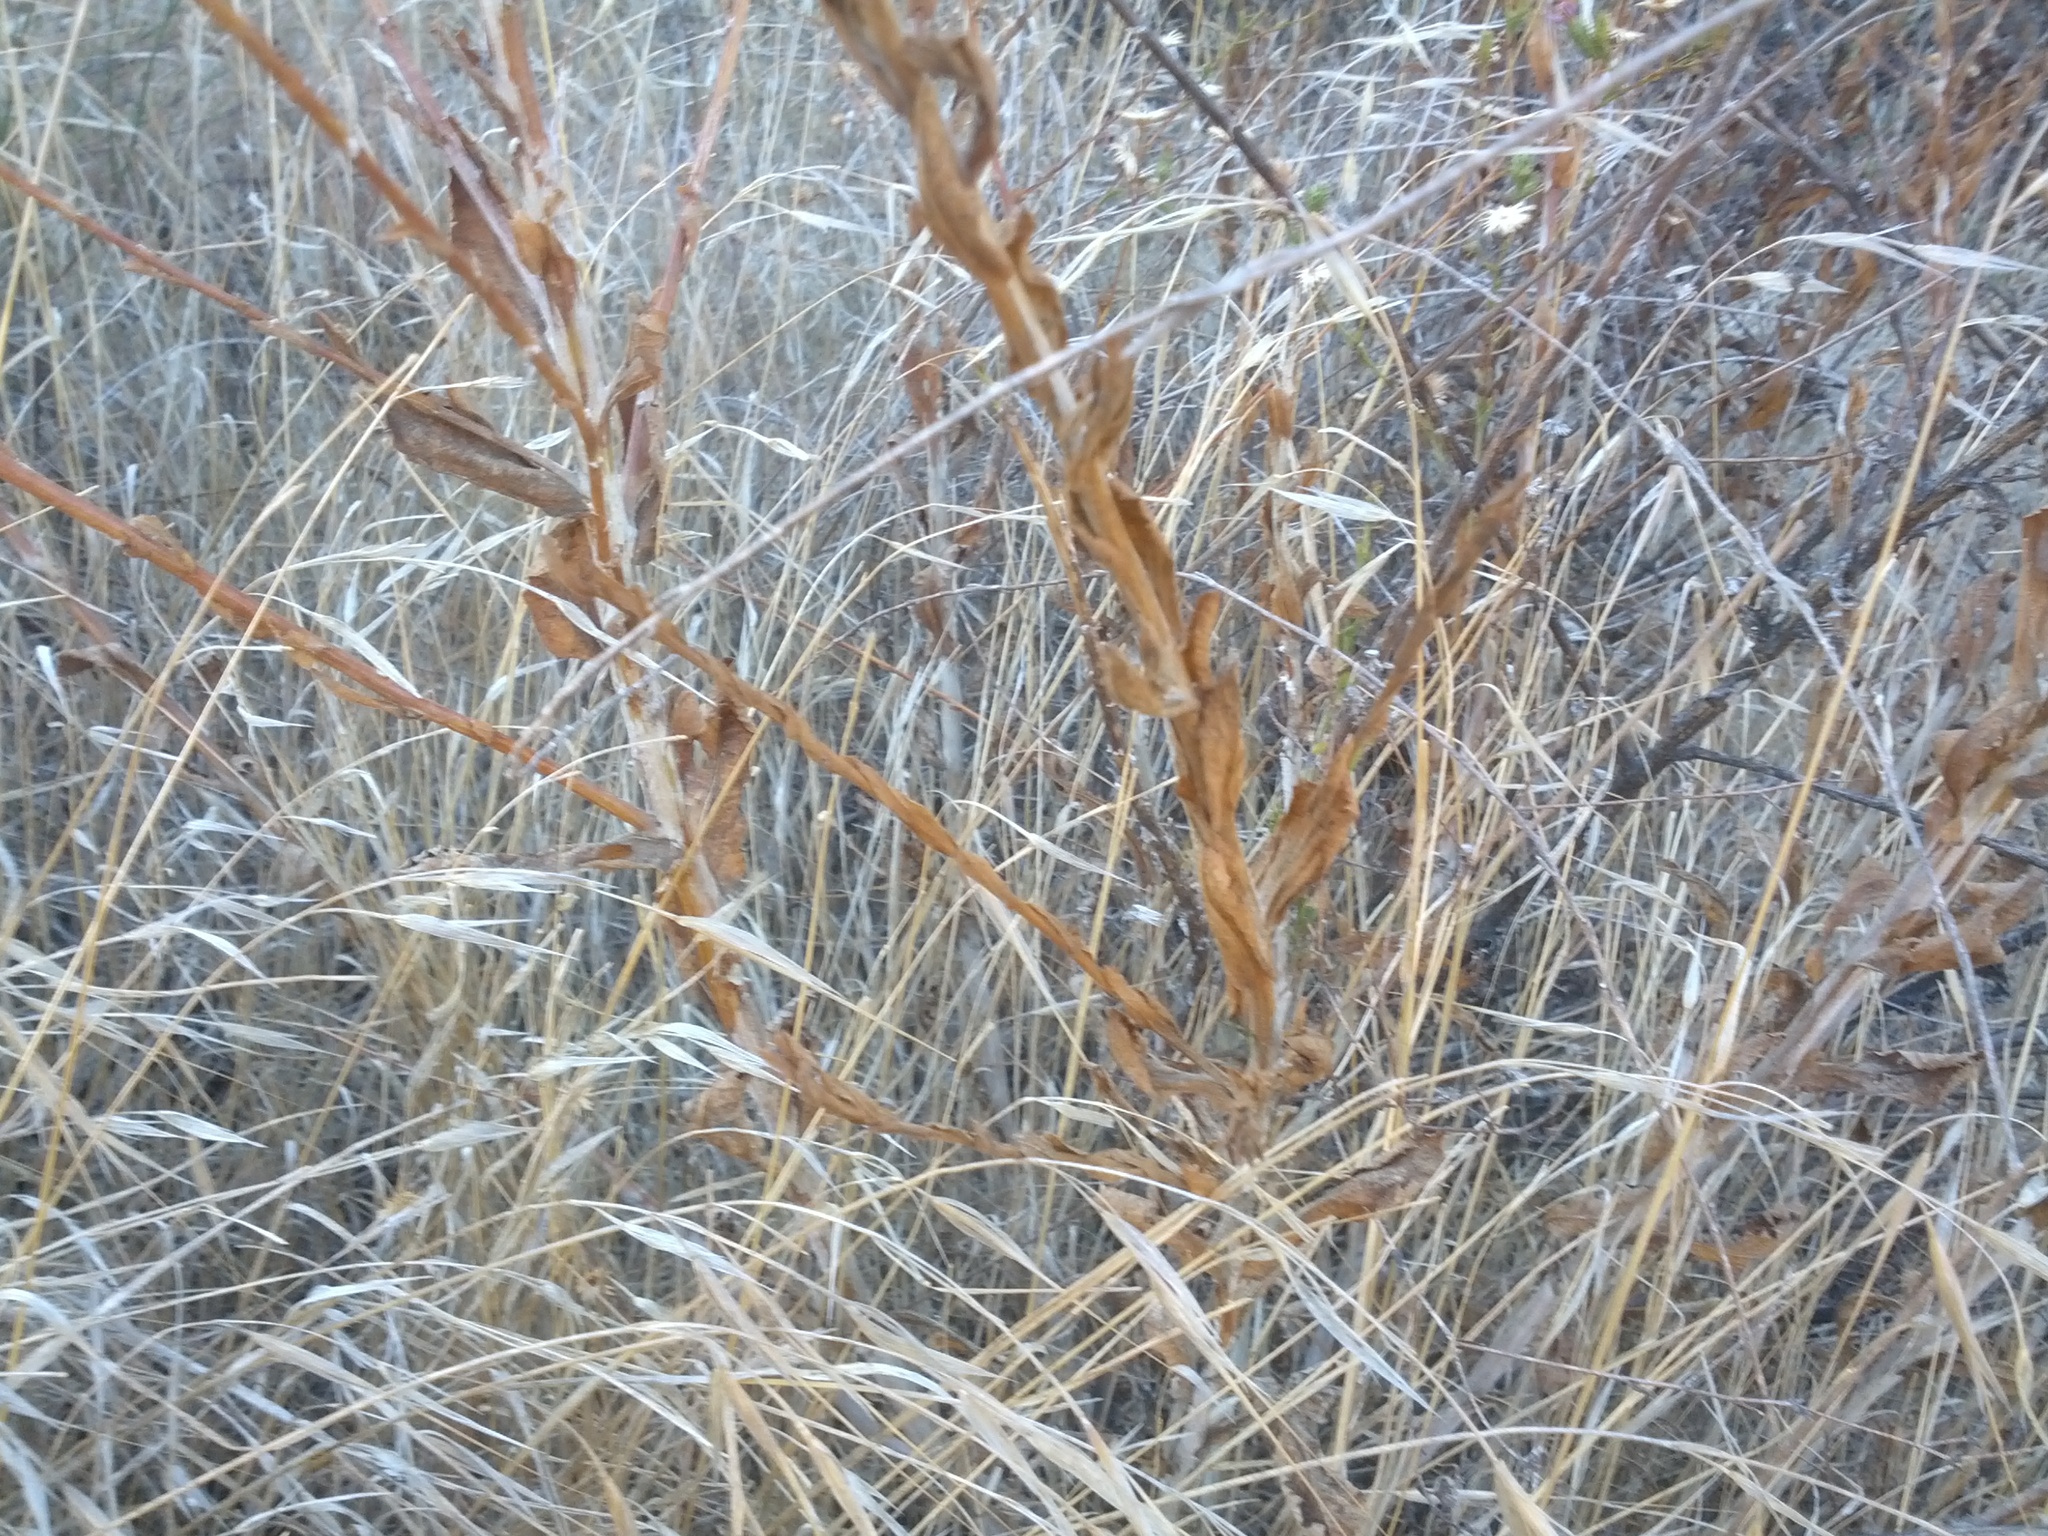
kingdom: Plantae
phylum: Tracheophyta
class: Magnoliopsida
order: Asterales
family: Asteraceae
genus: Corethrogyne
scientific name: Corethrogyne filaginifolia
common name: Sand-aster
